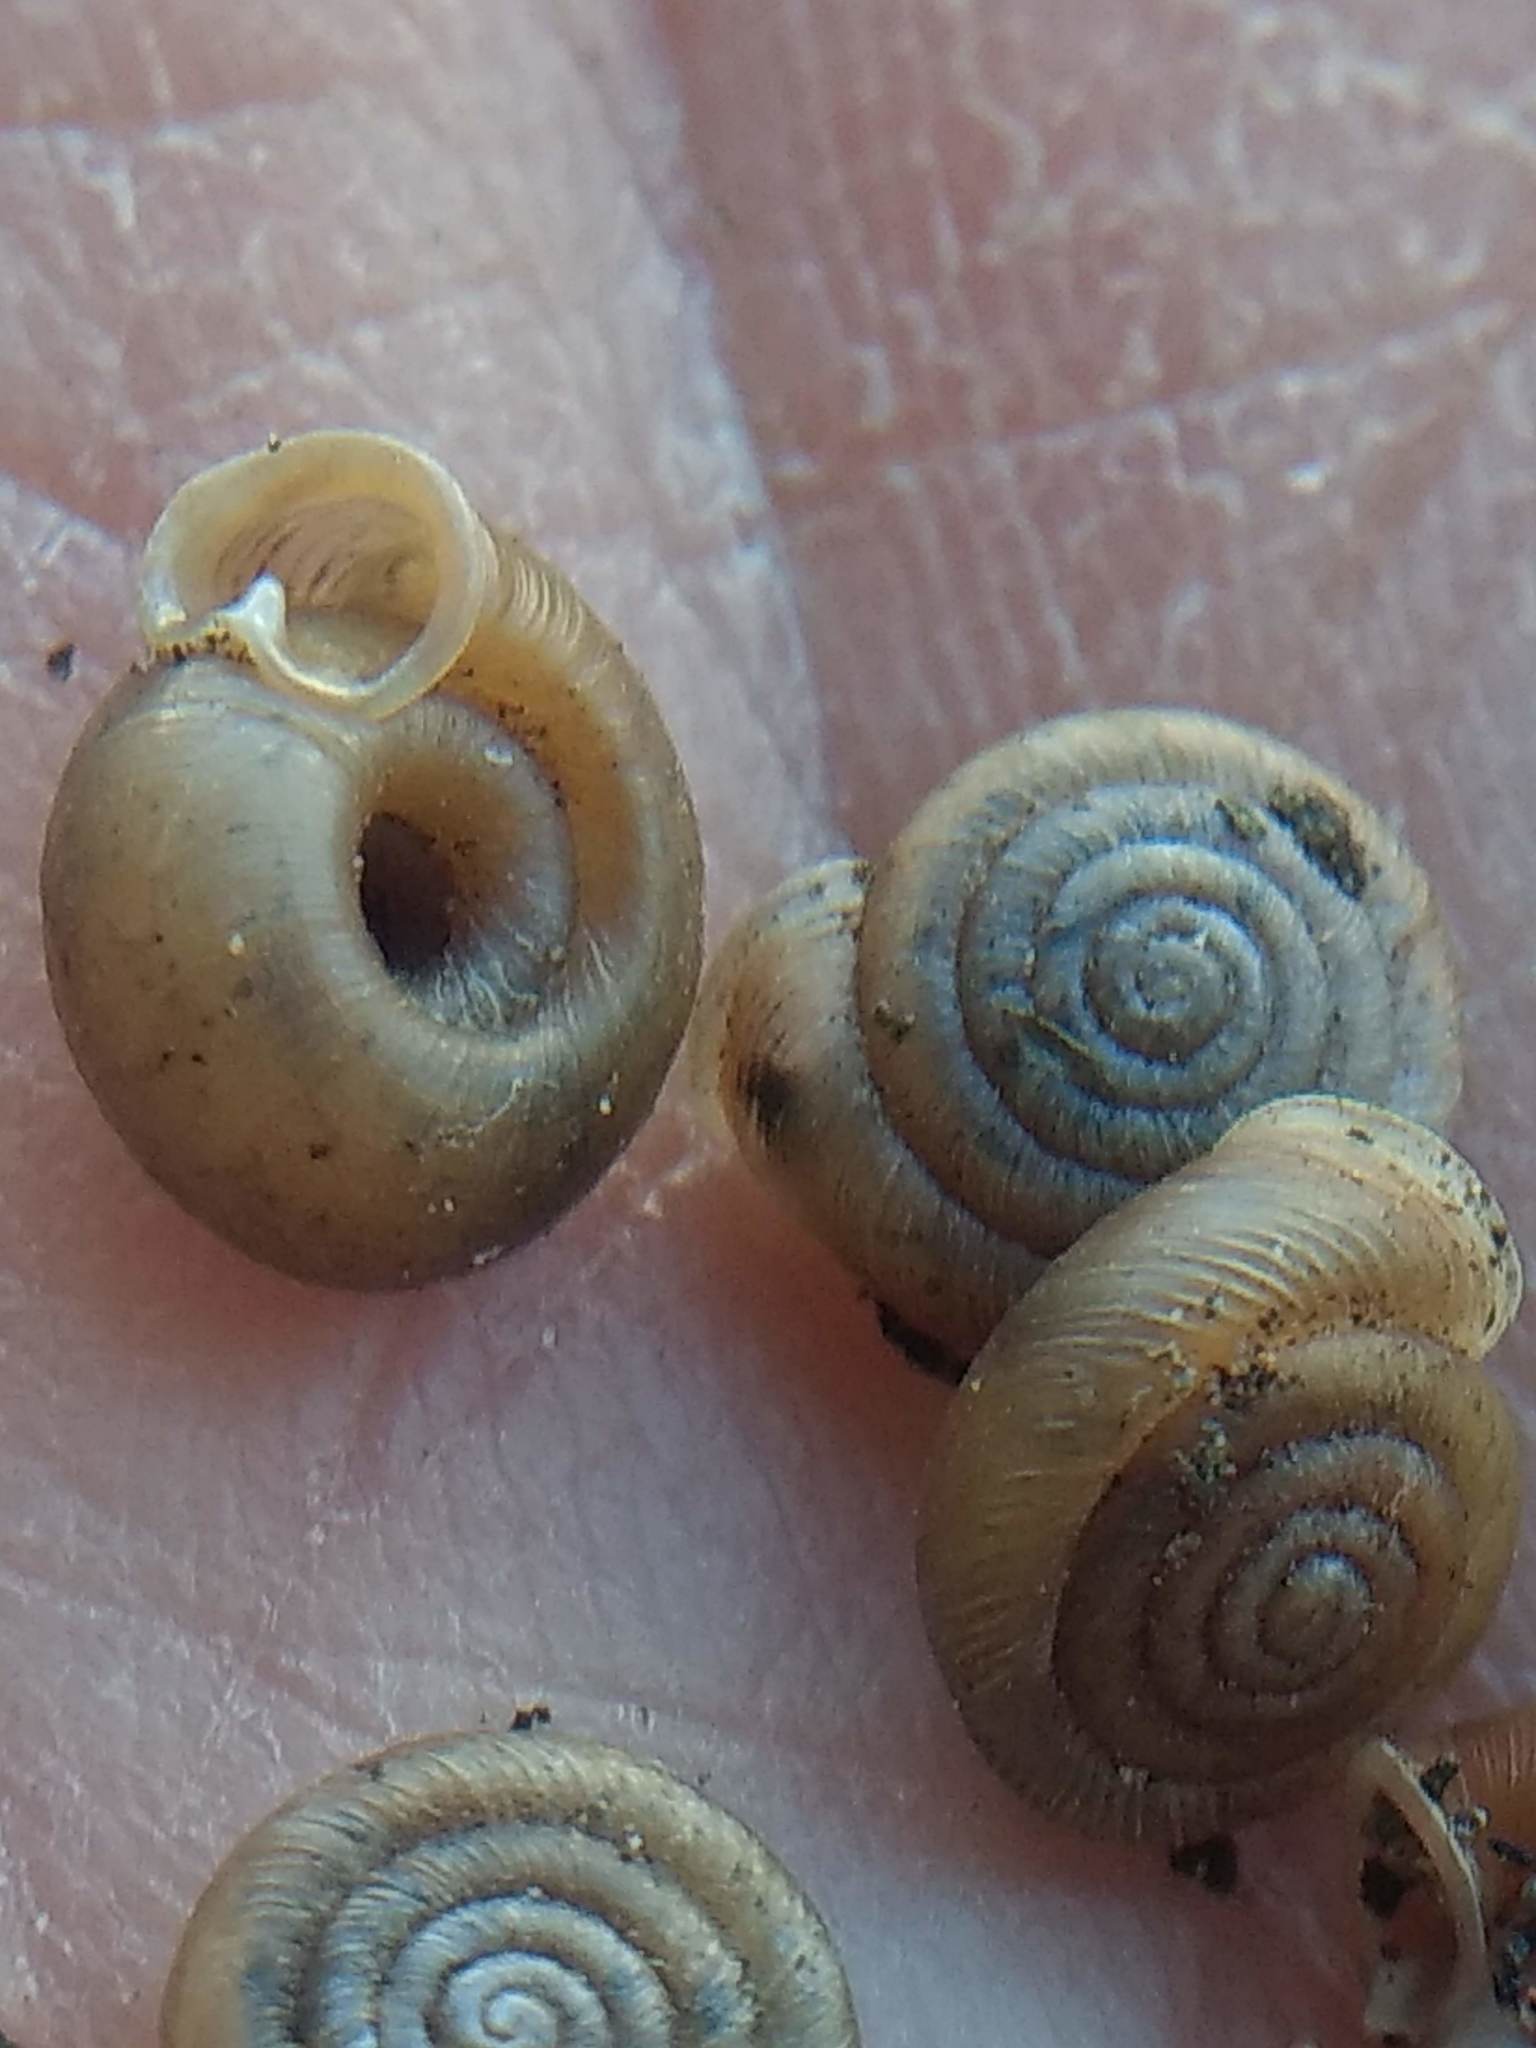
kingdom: Animalia
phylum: Mollusca
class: Gastropoda
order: Stylommatophora
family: Polygyridae
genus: Polygyra
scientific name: Polygyra cereolus
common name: Southern flatcone snail
